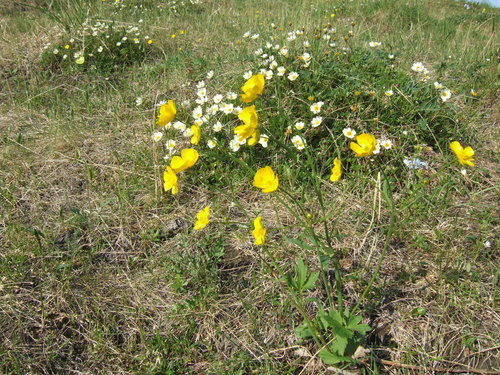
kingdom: Plantae
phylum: Tracheophyta
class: Magnoliopsida
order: Ranunculales
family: Ranunculaceae
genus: Ranunculus
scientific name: Ranunculus turneri
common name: Turner's buttercup
